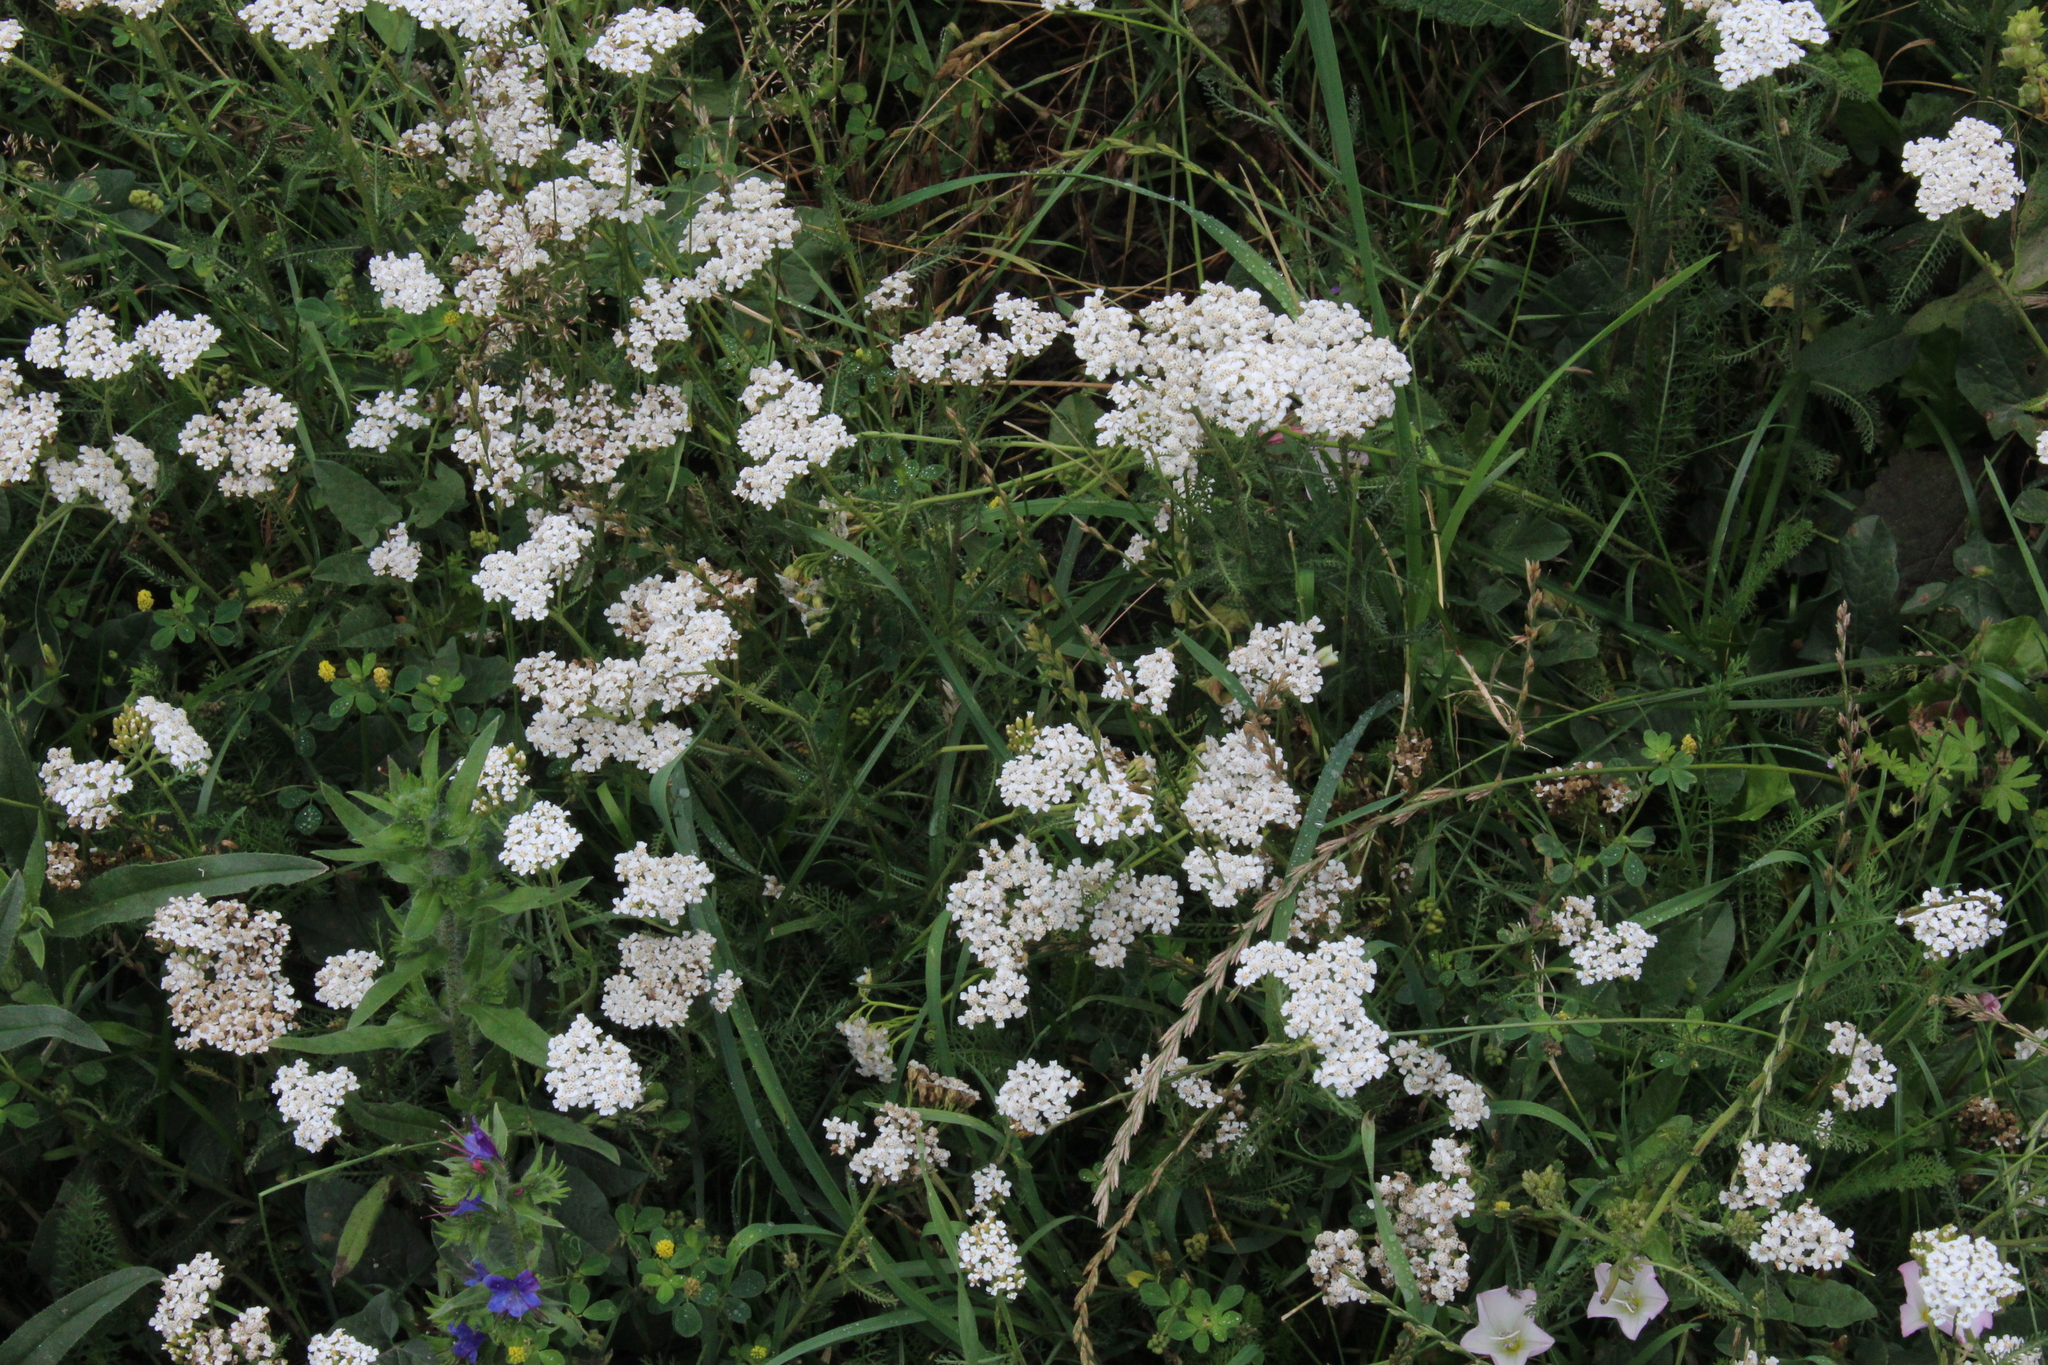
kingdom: Plantae
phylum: Tracheophyta
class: Magnoliopsida
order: Asterales
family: Asteraceae
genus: Achillea
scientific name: Achillea millefolium
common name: Yarrow
